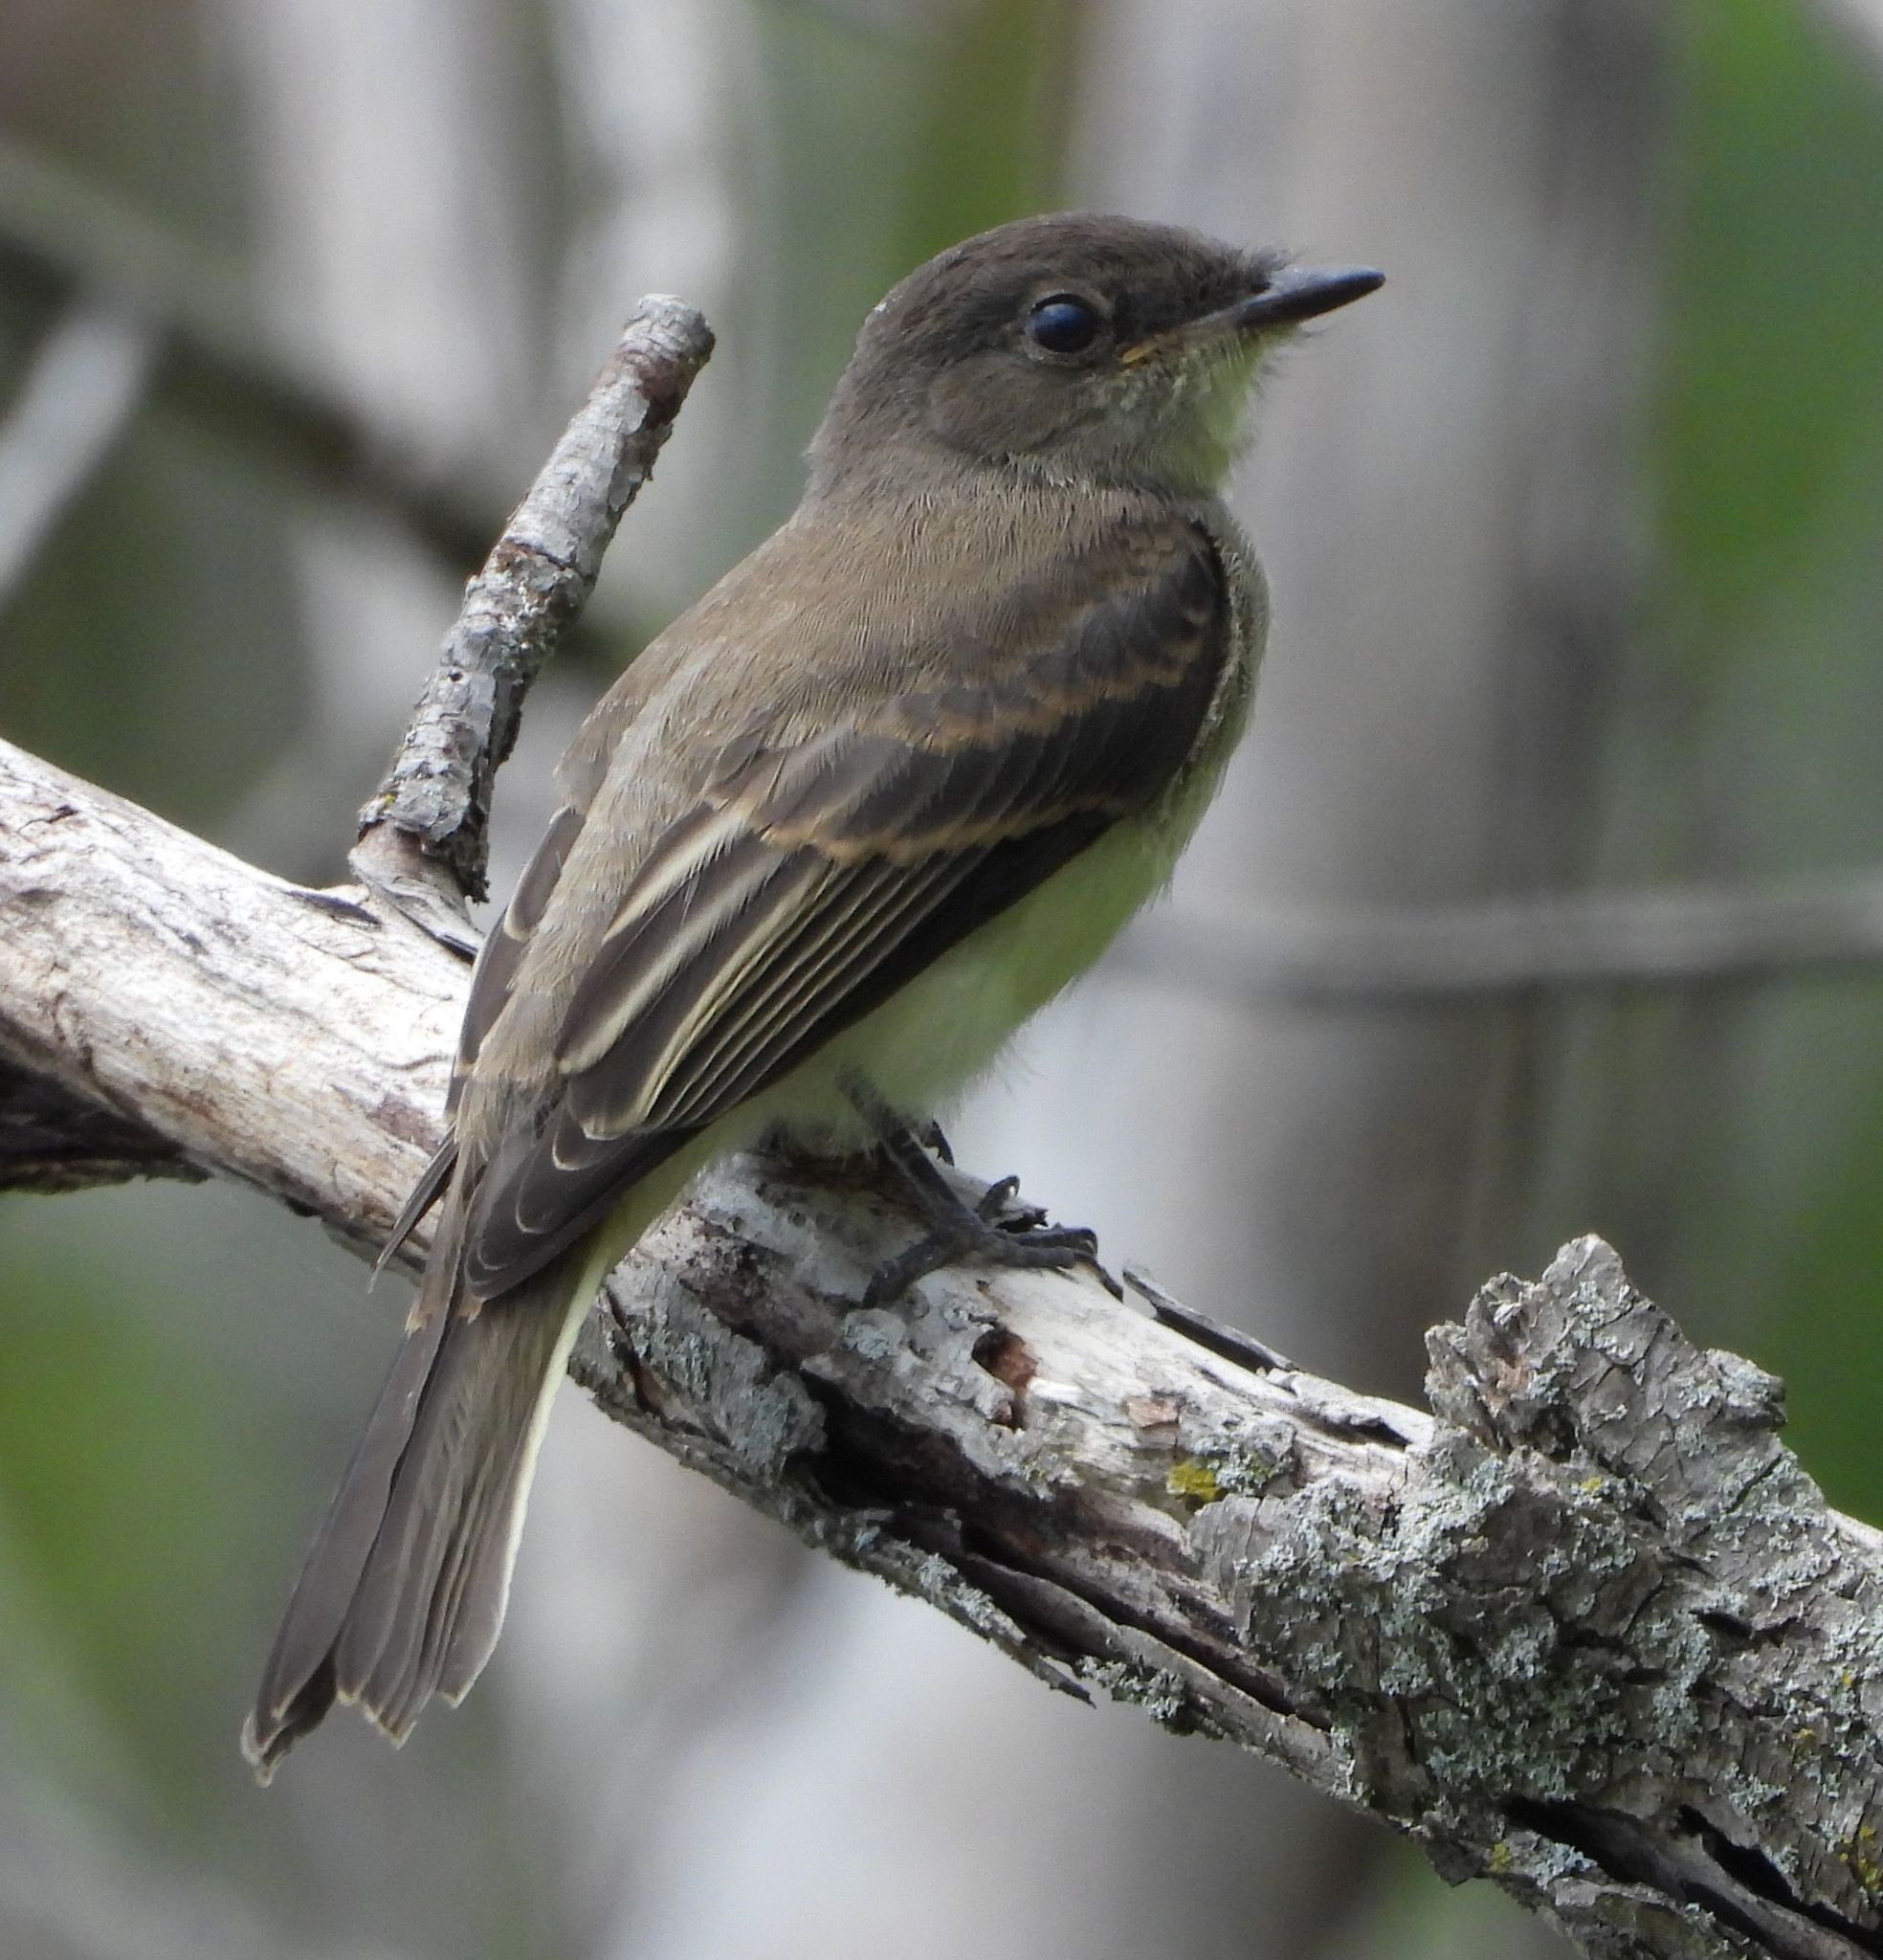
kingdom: Animalia
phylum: Chordata
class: Aves
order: Passeriformes
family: Tyrannidae
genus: Sayornis
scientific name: Sayornis phoebe
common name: Eastern phoebe
